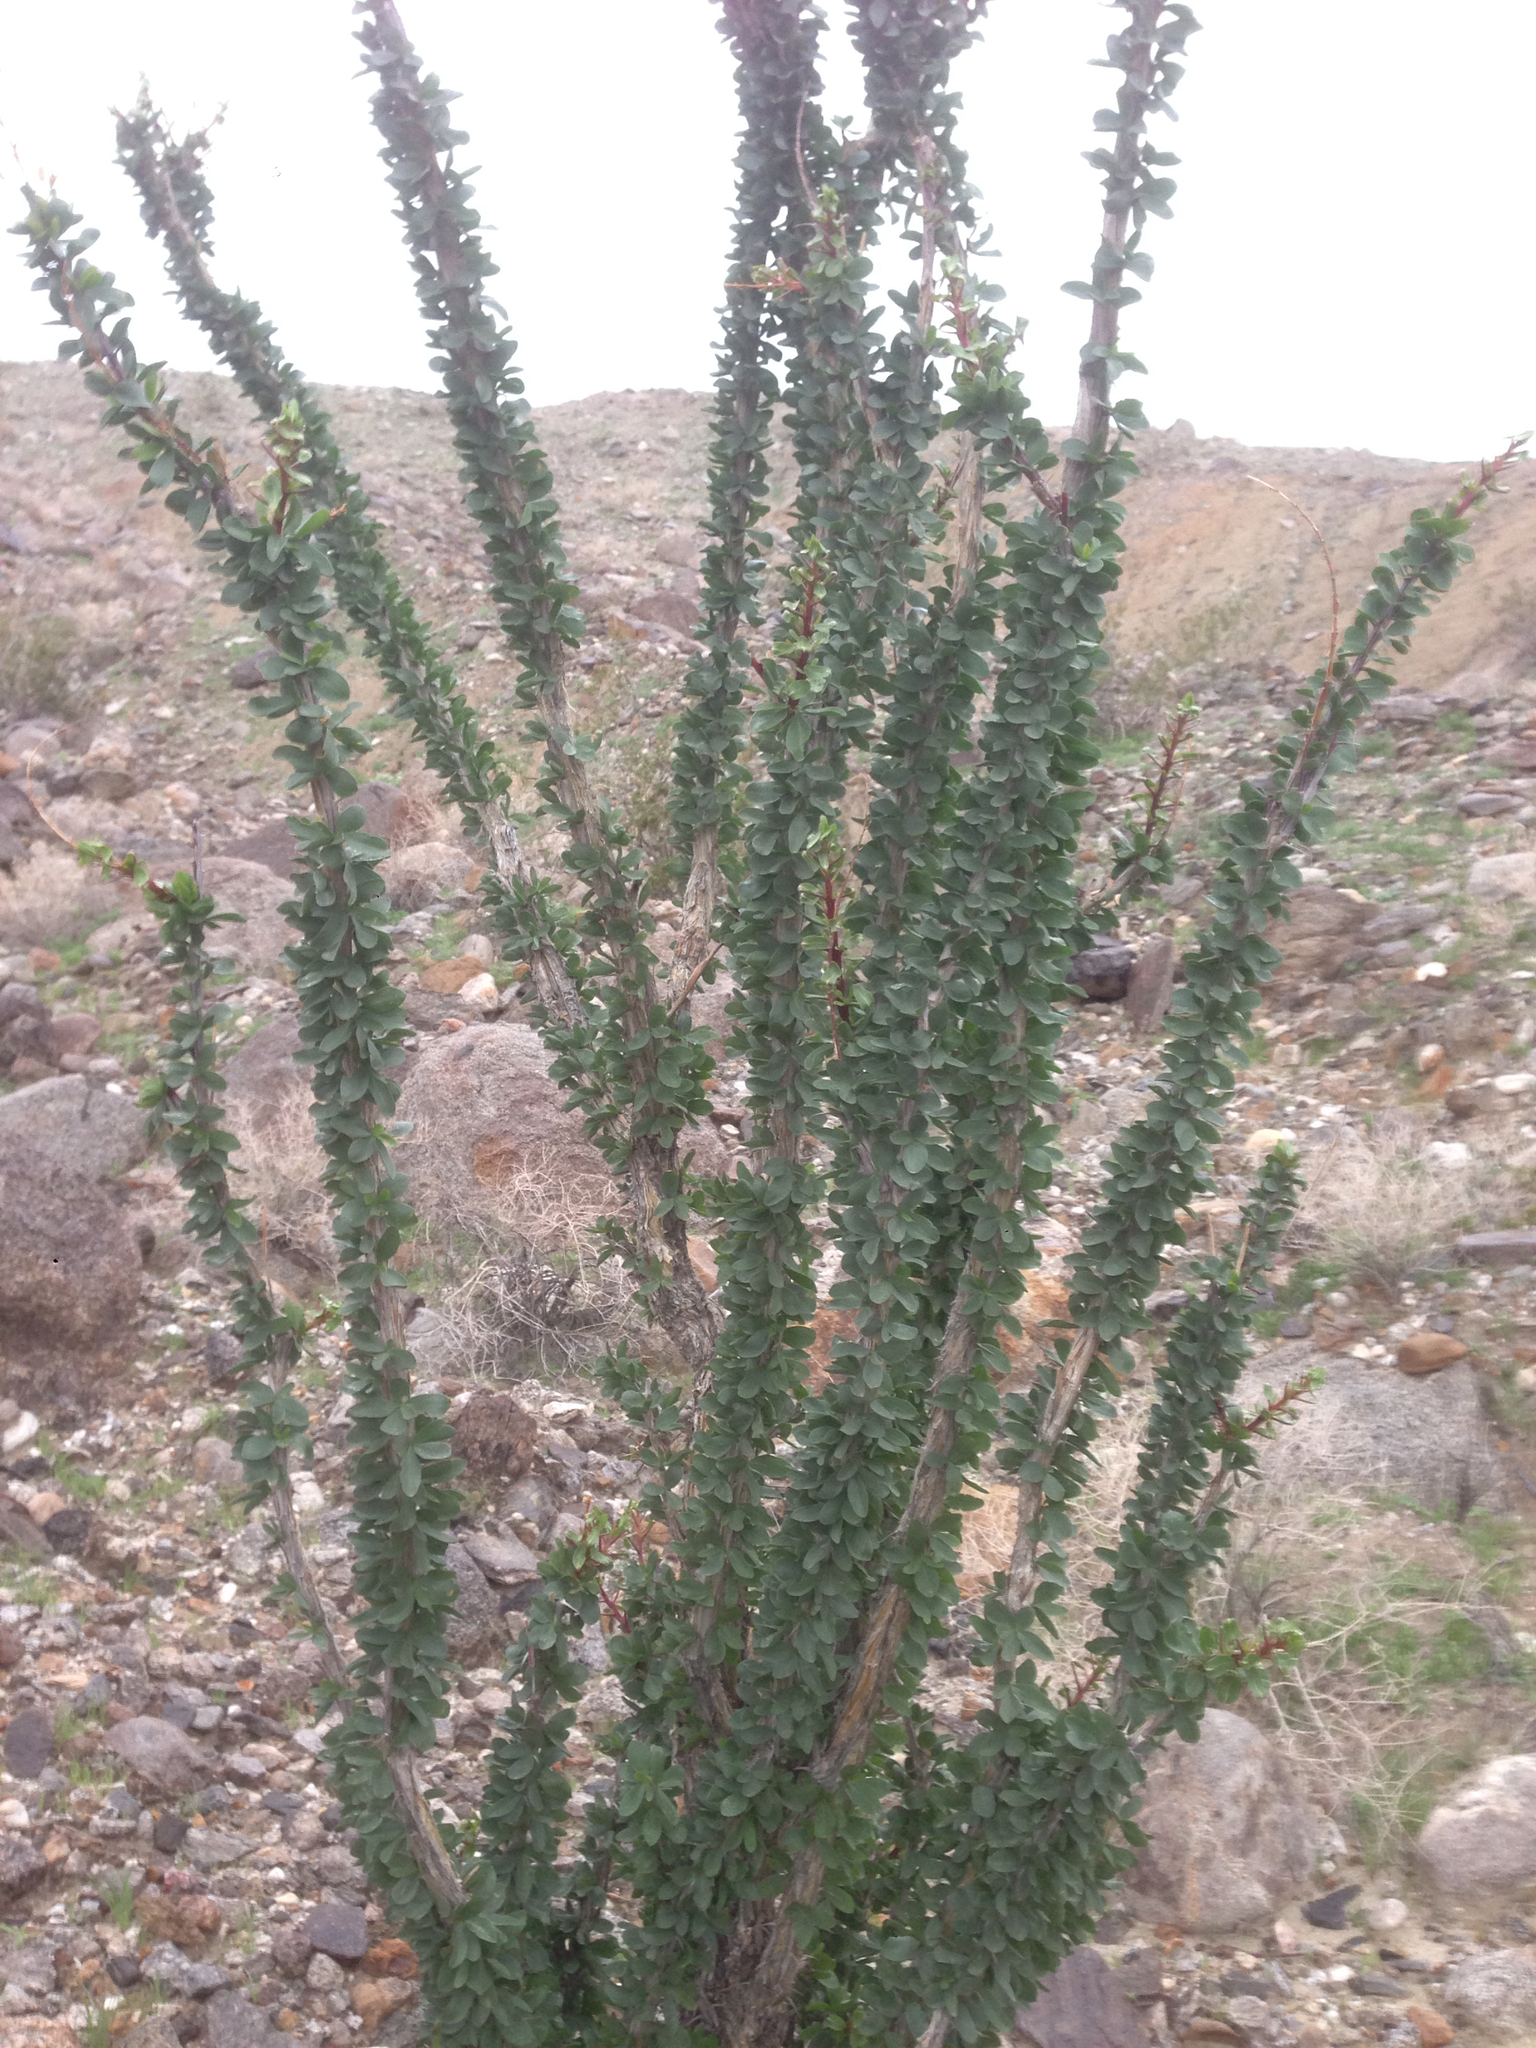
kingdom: Plantae
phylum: Tracheophyta
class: Magnoliopsida
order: Ericales
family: Fouquieriaceae
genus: Fouquieria
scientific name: Fouquieria splendens
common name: Vine-cactus
